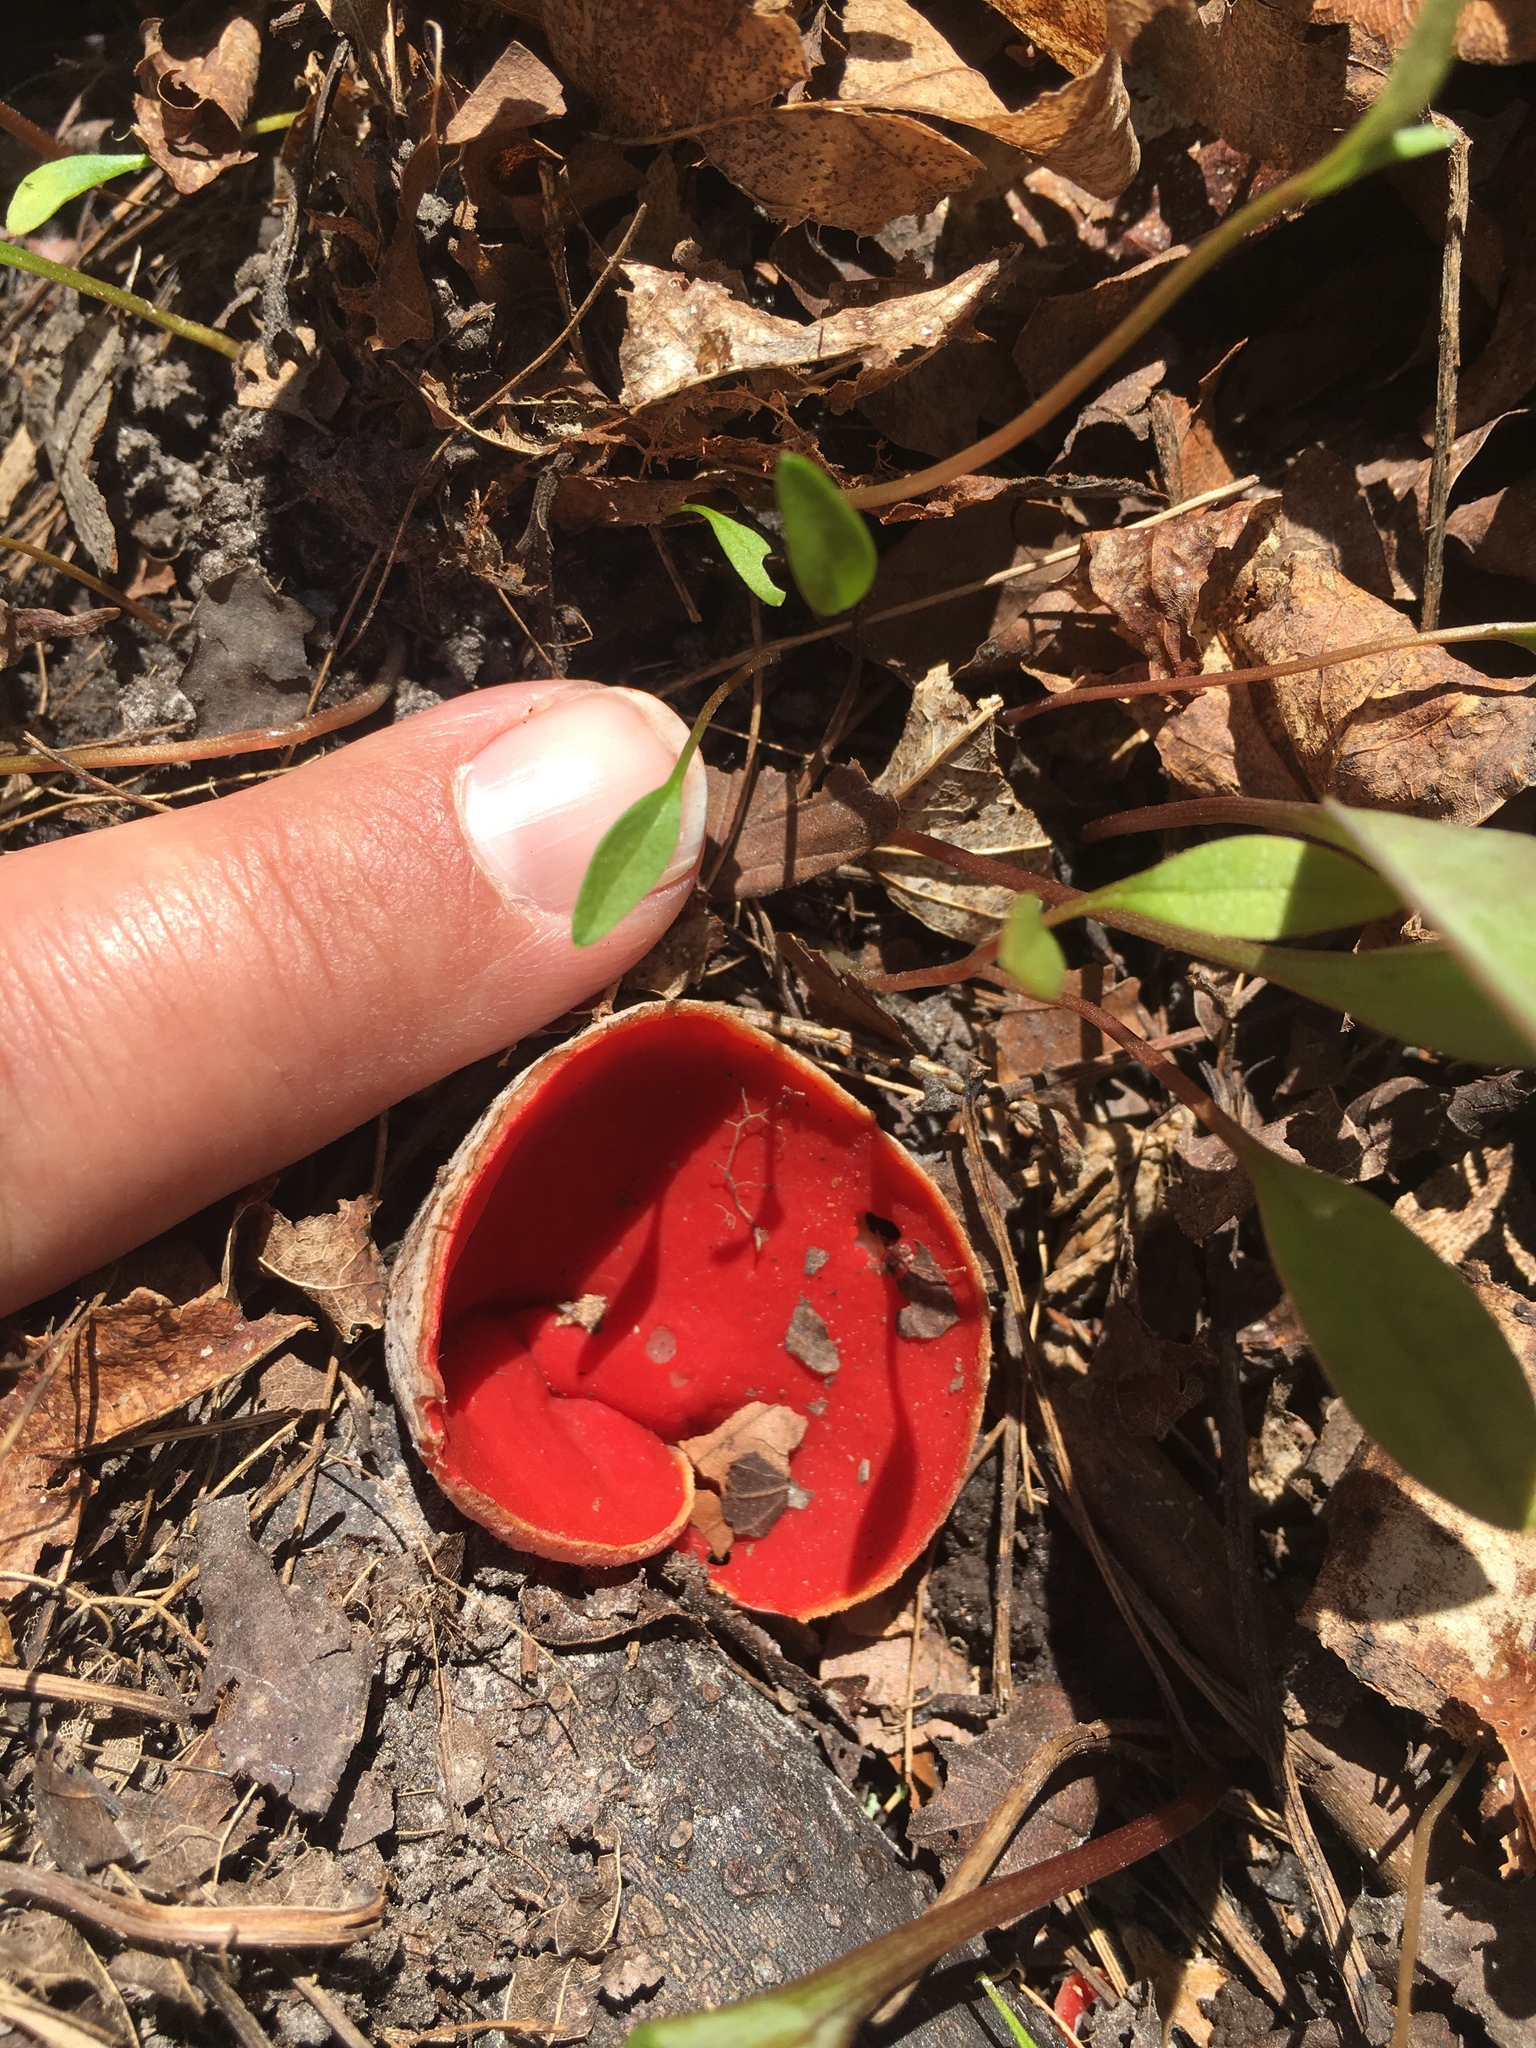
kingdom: Fungi
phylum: Ascomycota
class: Pezizomycetes
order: Pezizales
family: Sarcoscyphaceae
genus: Sarcoscypha
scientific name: Sarcoscypha austriaca
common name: Scarlet elfcup
